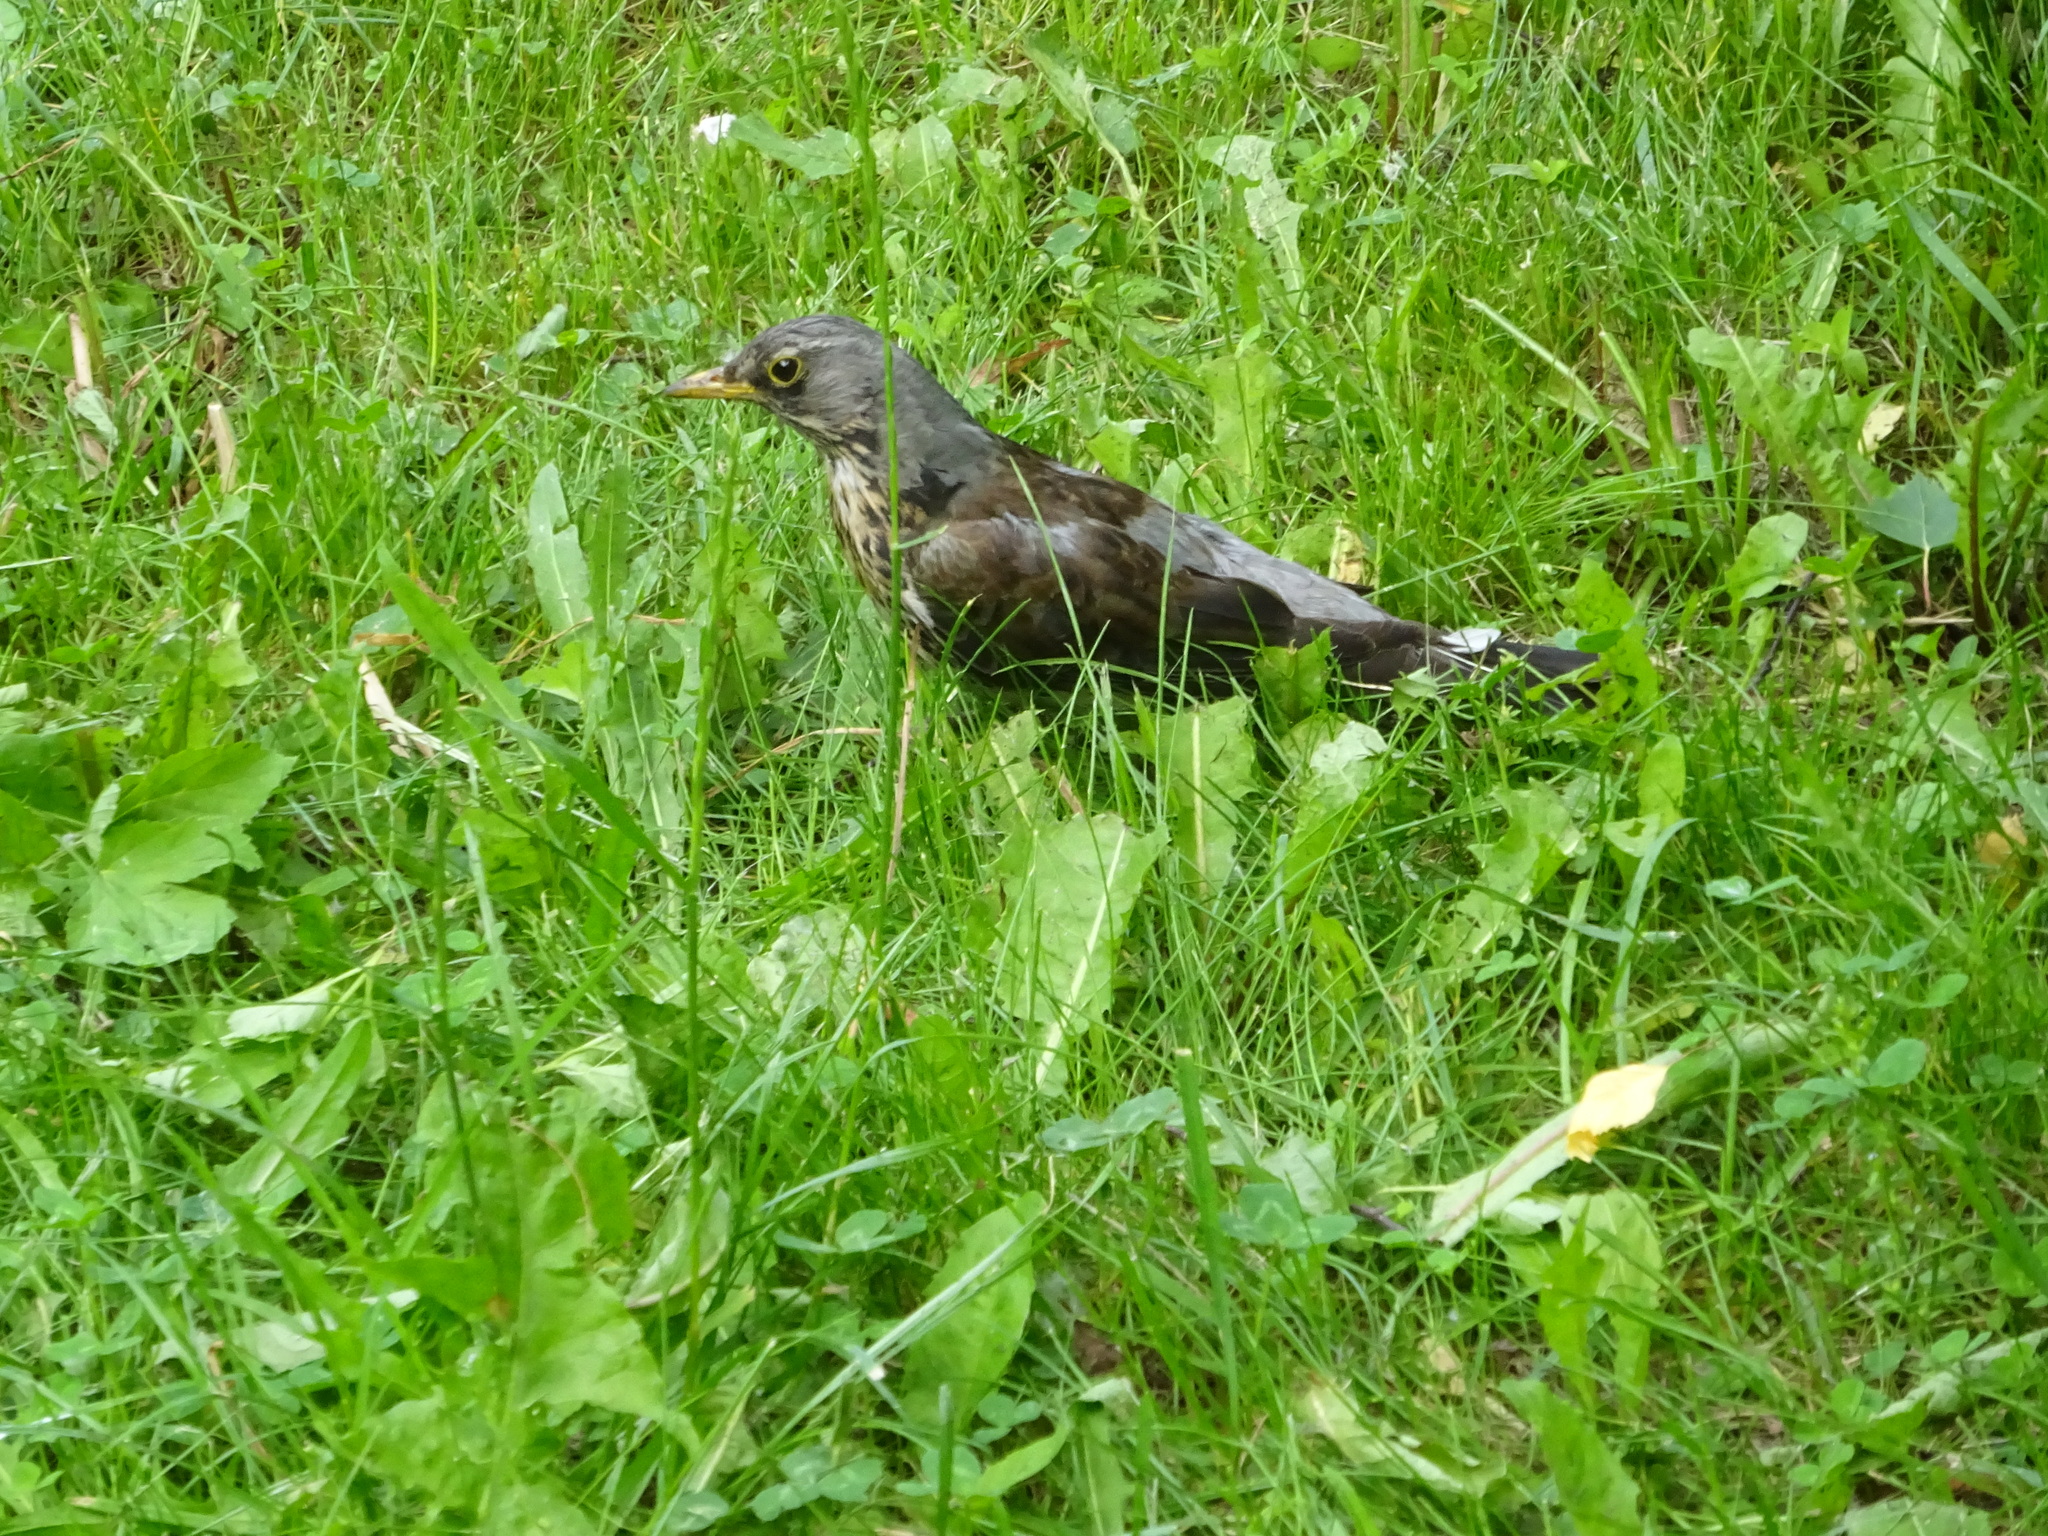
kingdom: Animalia
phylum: Chordata
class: Aves
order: Passeriformes
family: Turdidae
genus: Turdus
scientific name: Turdus pilaris
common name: Fieldfare
